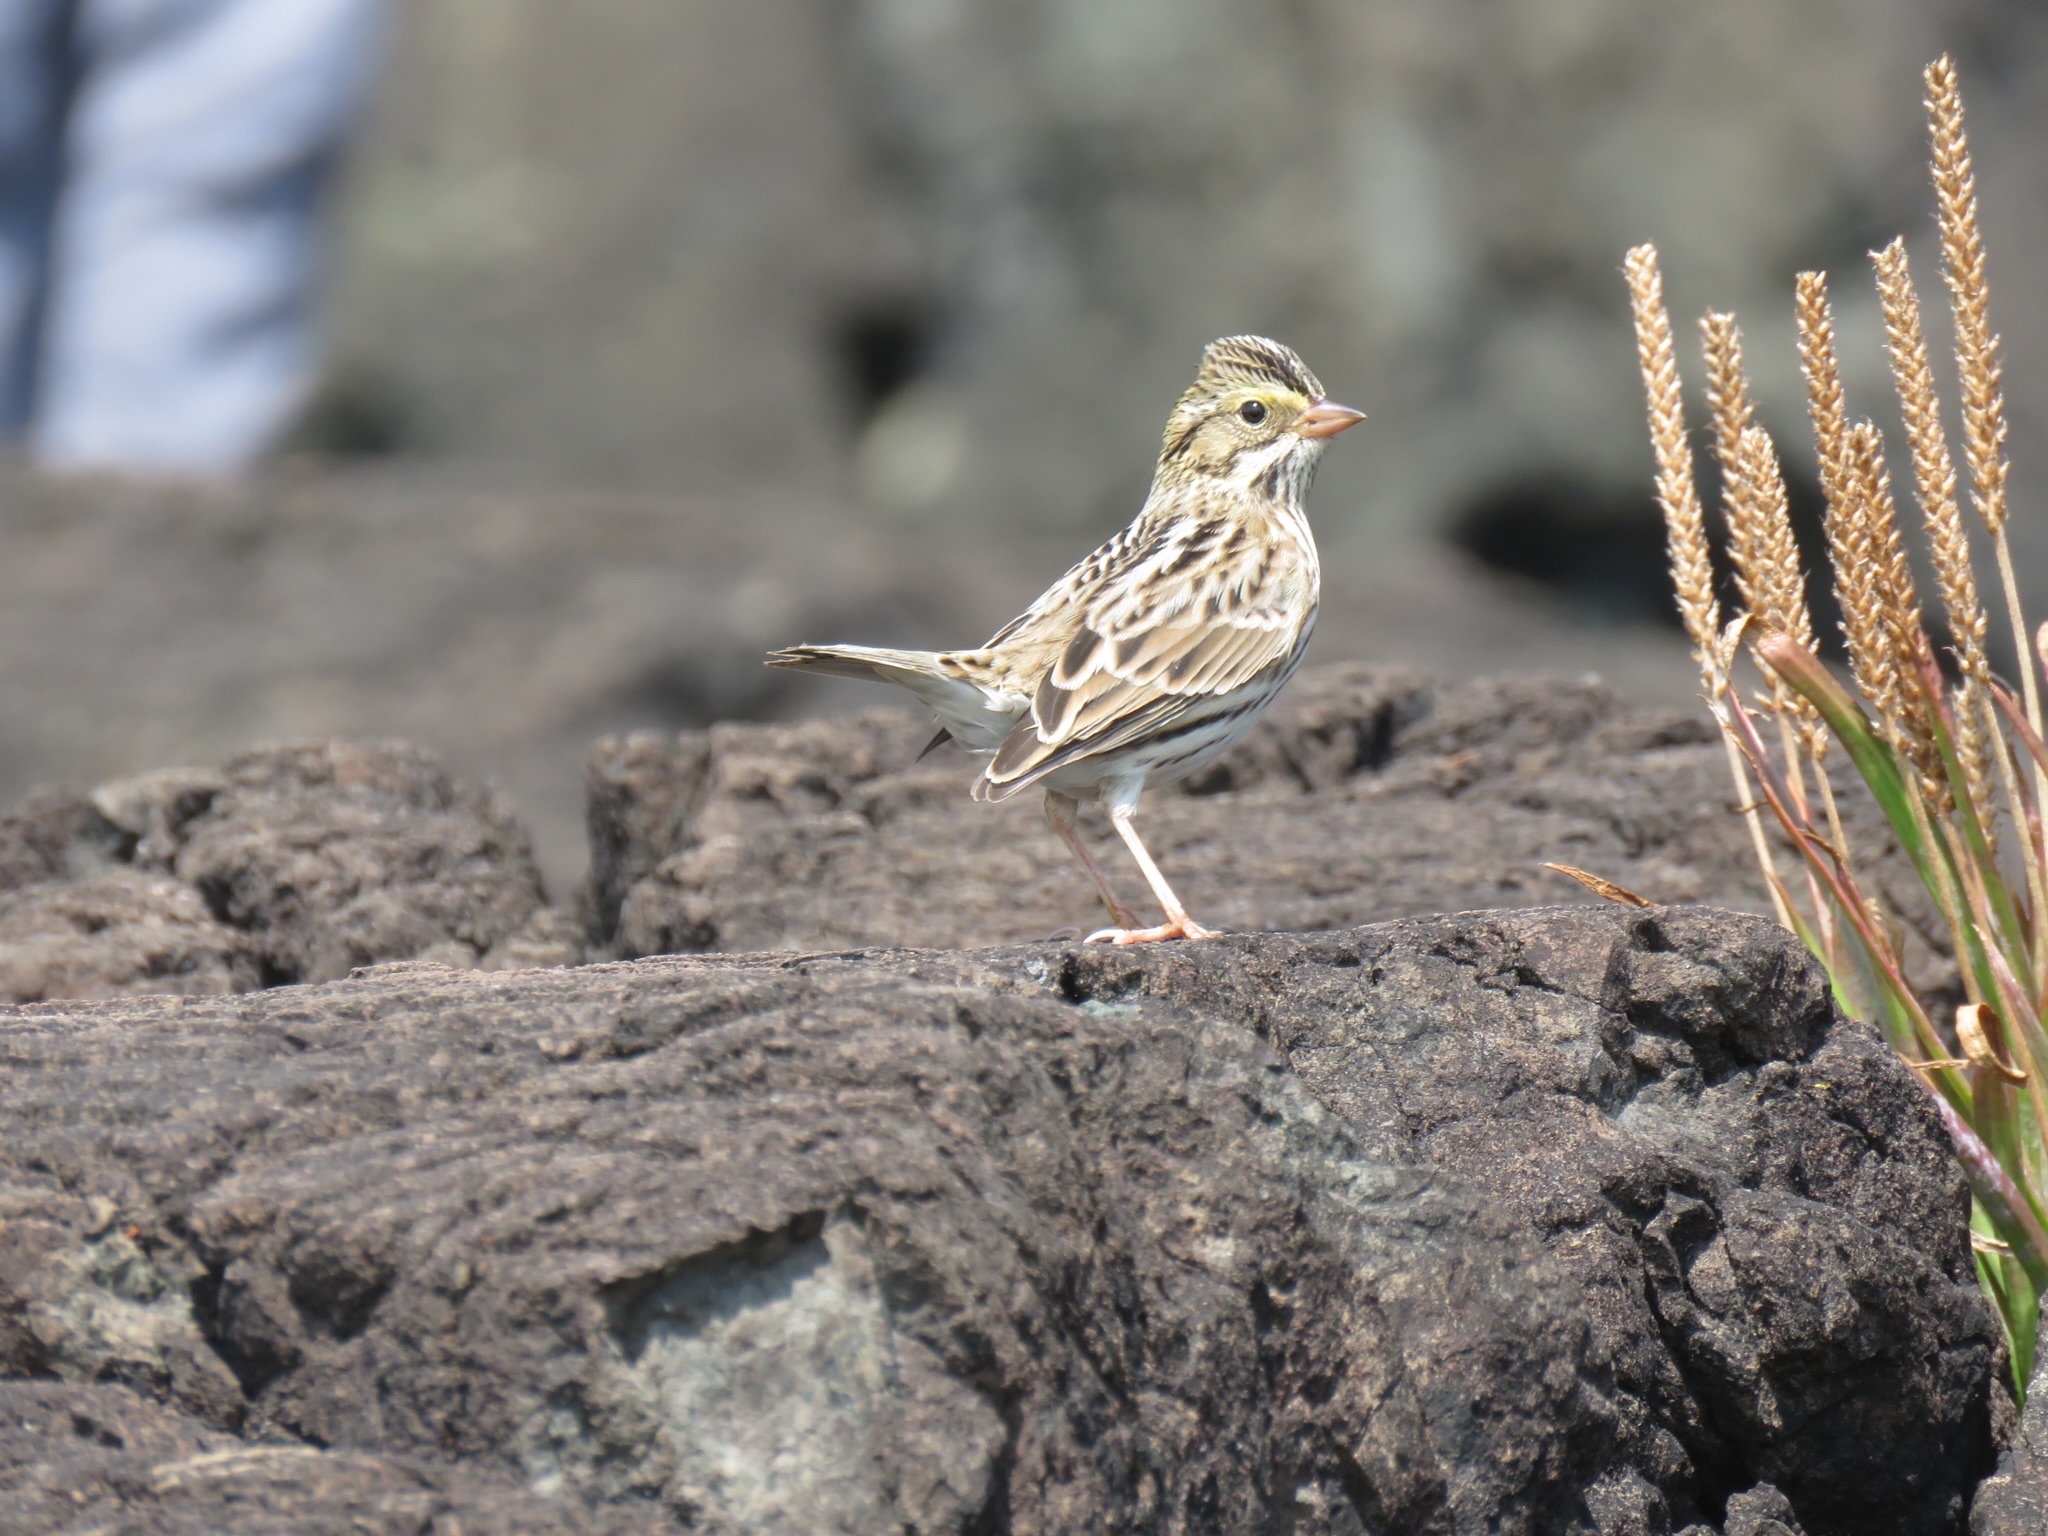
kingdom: Animalia
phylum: Chordata
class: Aves
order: Passeriformes
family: Passerellidae
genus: Passerculus
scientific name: Passerculus sandwichensis
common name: Savannah sparrow
